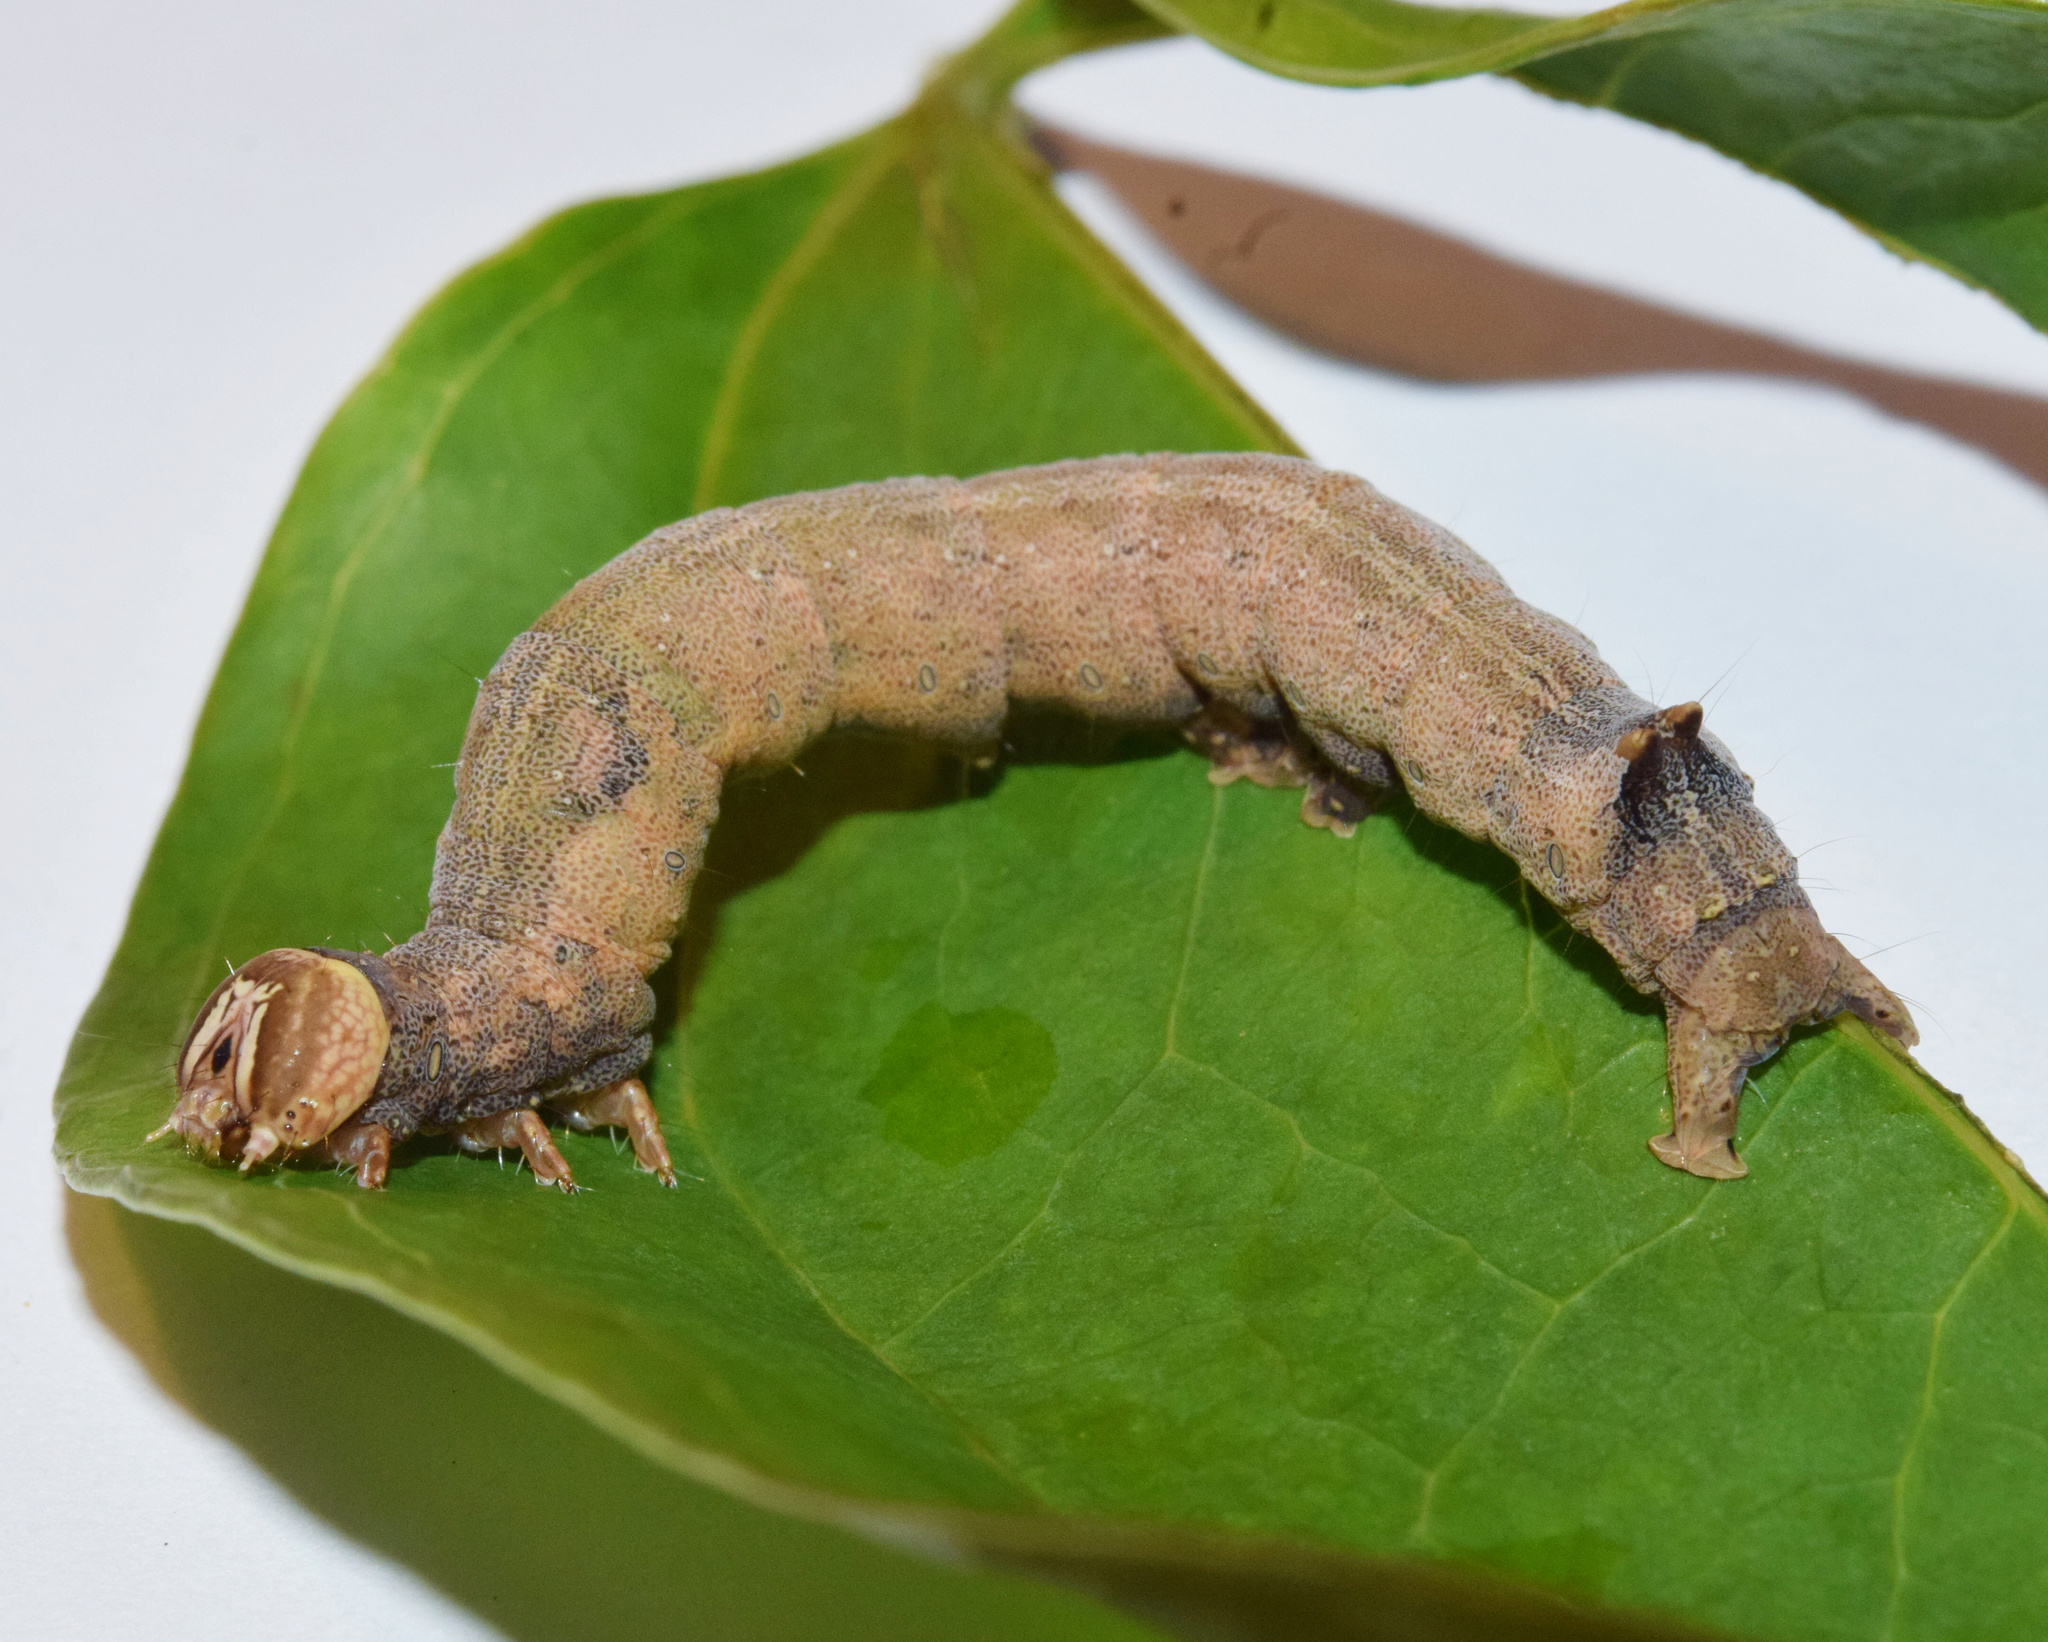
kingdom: Animalia
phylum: Arthropoda
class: Insecta
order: Lepidoptera
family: Erebidae
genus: Achaea
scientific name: Achaea klugii
